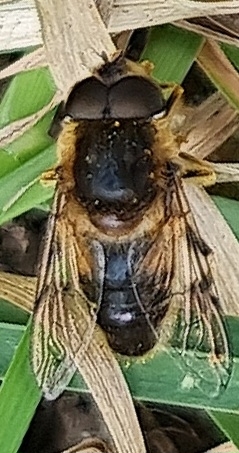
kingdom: Animalia
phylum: Arthropoda
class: Insecta
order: Diptera
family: Syrphidae
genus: Eoseristalis
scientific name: Eoseristalis
